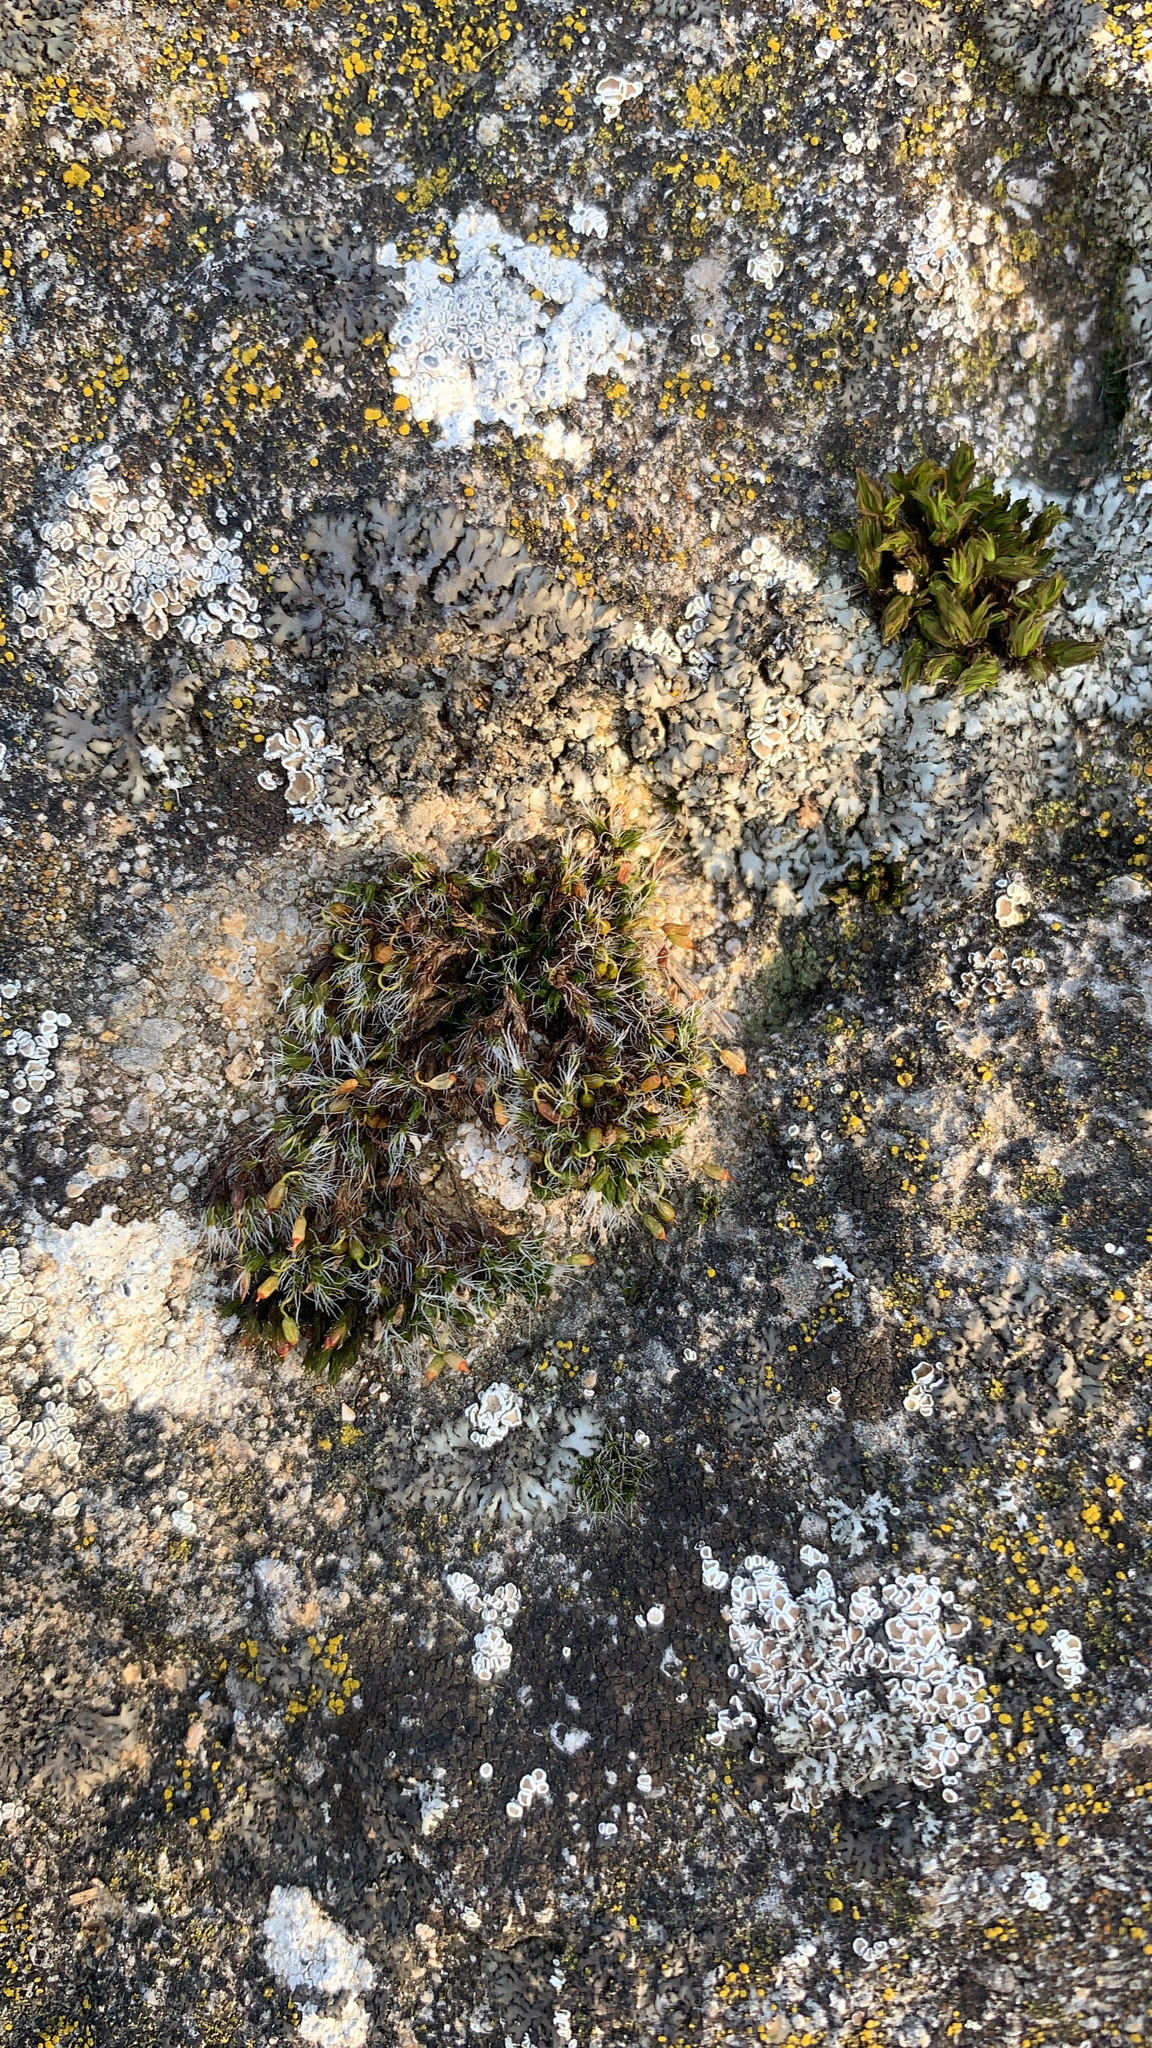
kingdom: Plantae
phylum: Bryophyta
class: Bryopsida
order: Grimmiales
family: Grimmiaceae
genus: Grimmia
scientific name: Grimmia pulvinata
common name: Grey-cushioned grimmia
